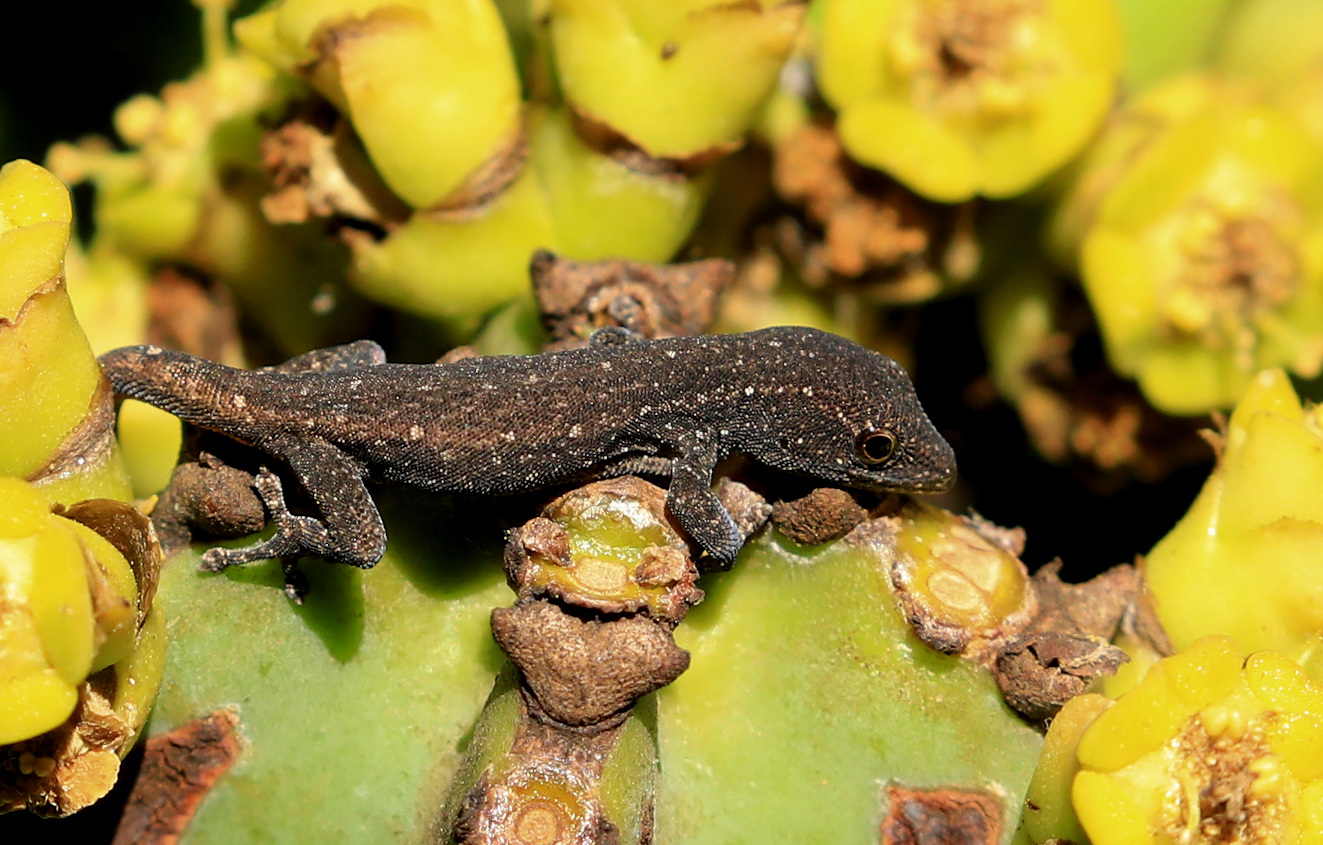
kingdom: Animalia
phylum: Chordata
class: Squamata
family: Gekkonidae
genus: Lygodactylus
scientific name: Lygodactylus capensis
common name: Cape dwarf gecko
